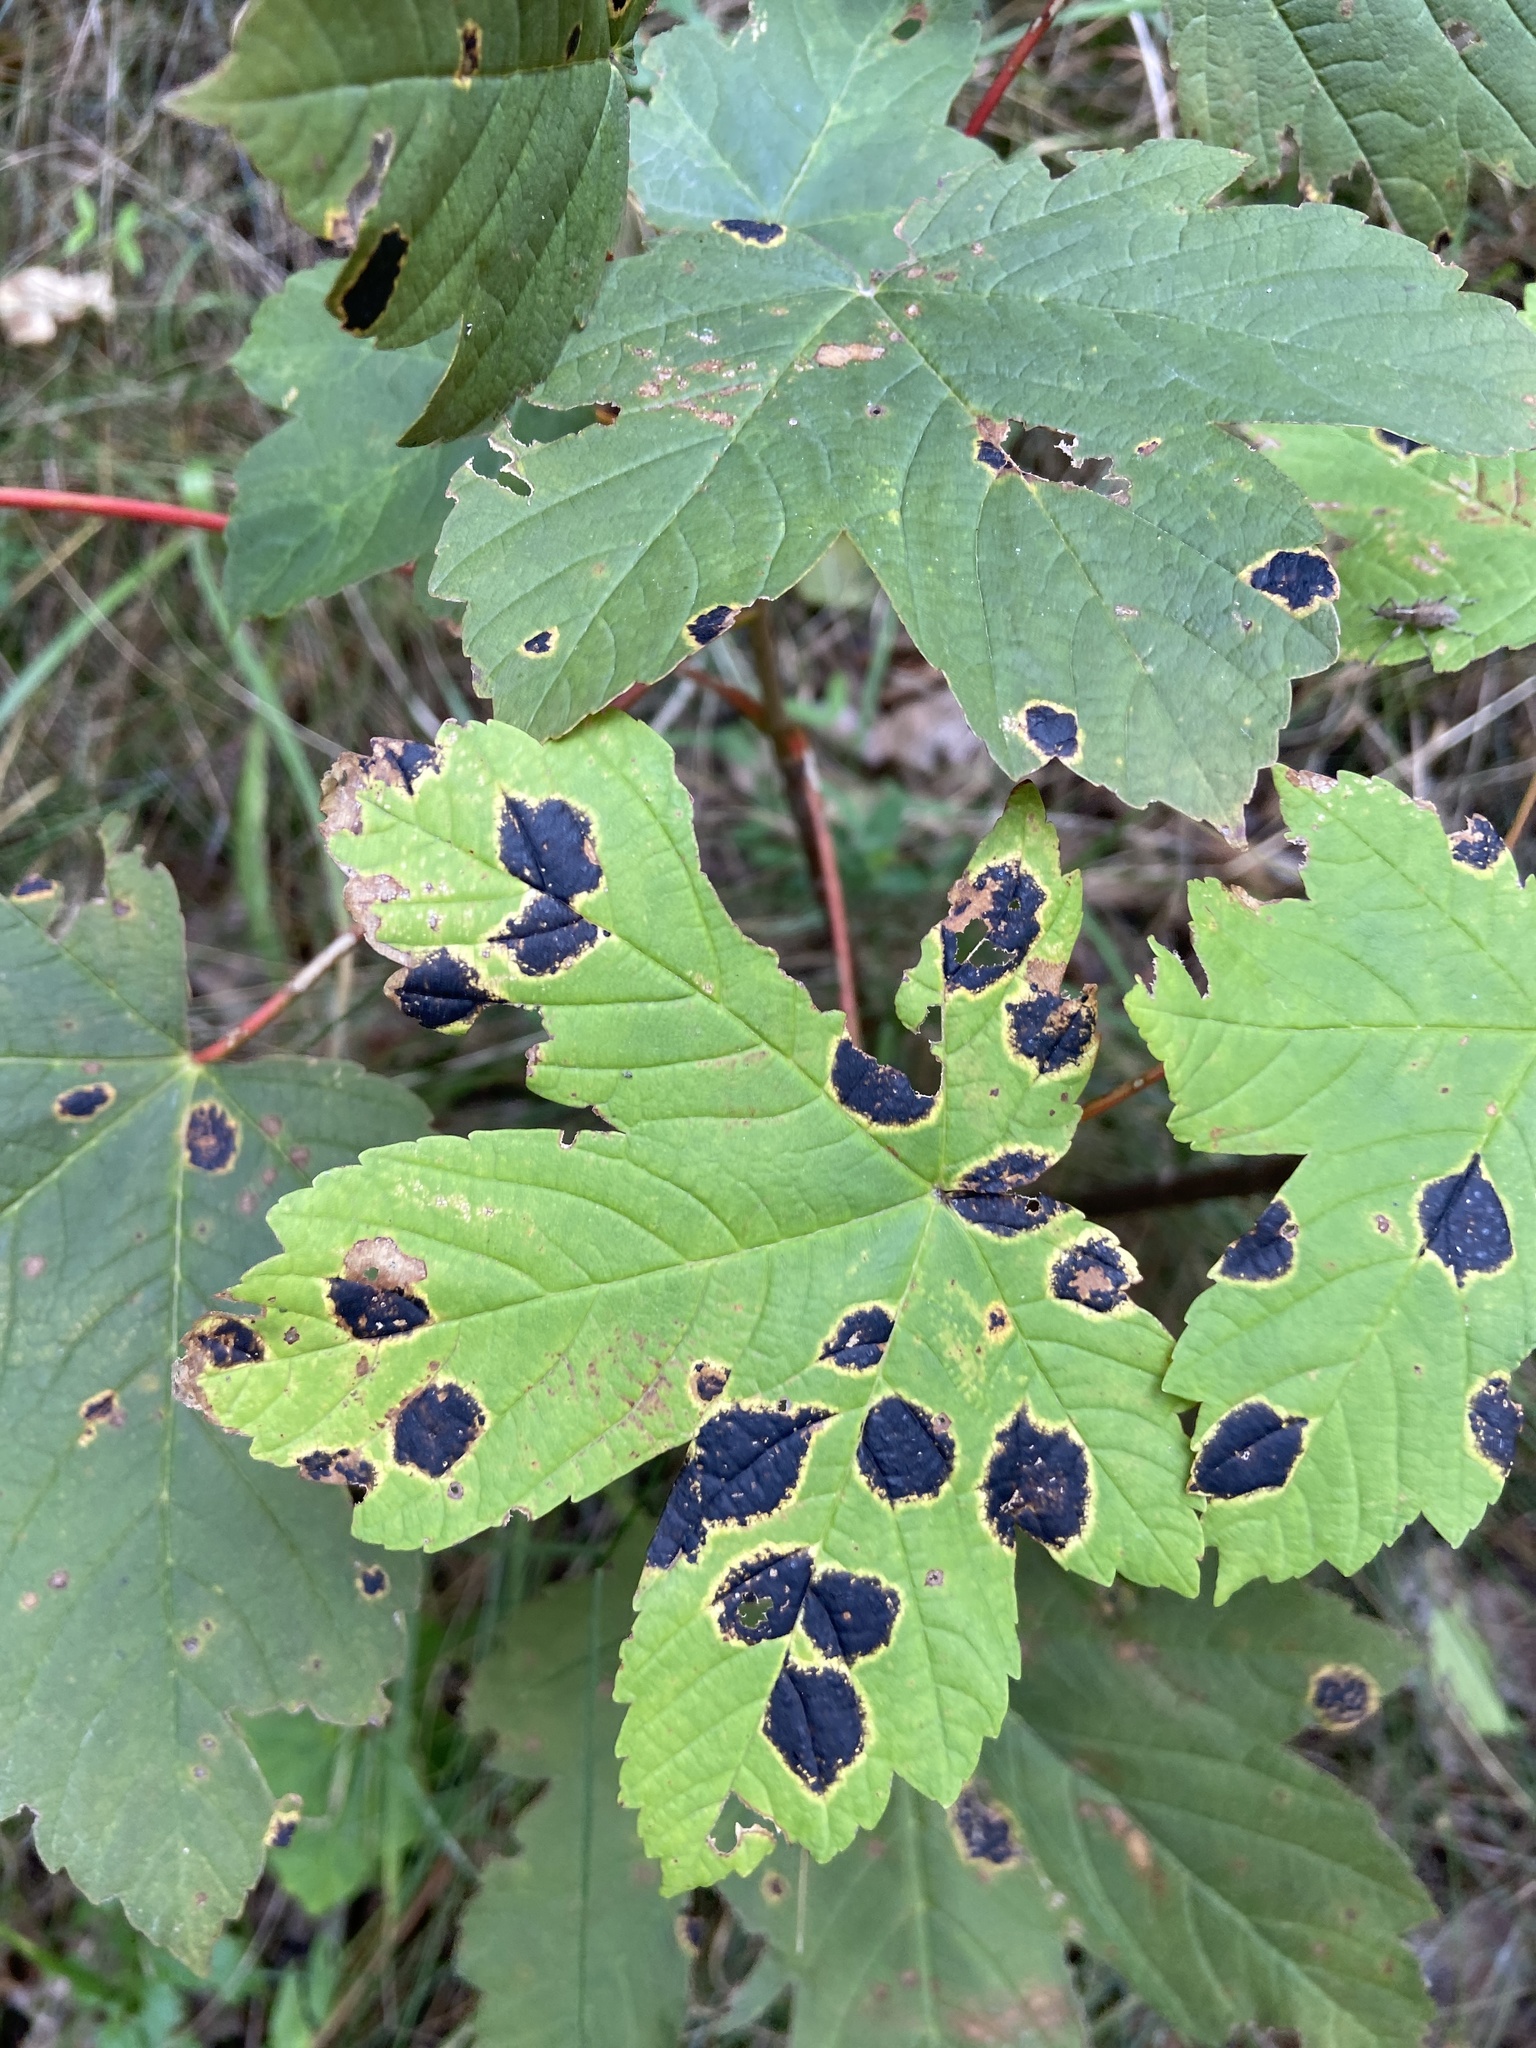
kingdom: Fungi
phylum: Ascomycota
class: Leotiomycetes
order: Rhytismatales
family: Rhytismataceae
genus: Rhytisma
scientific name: Rhytisma acerinum
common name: European tar spot
